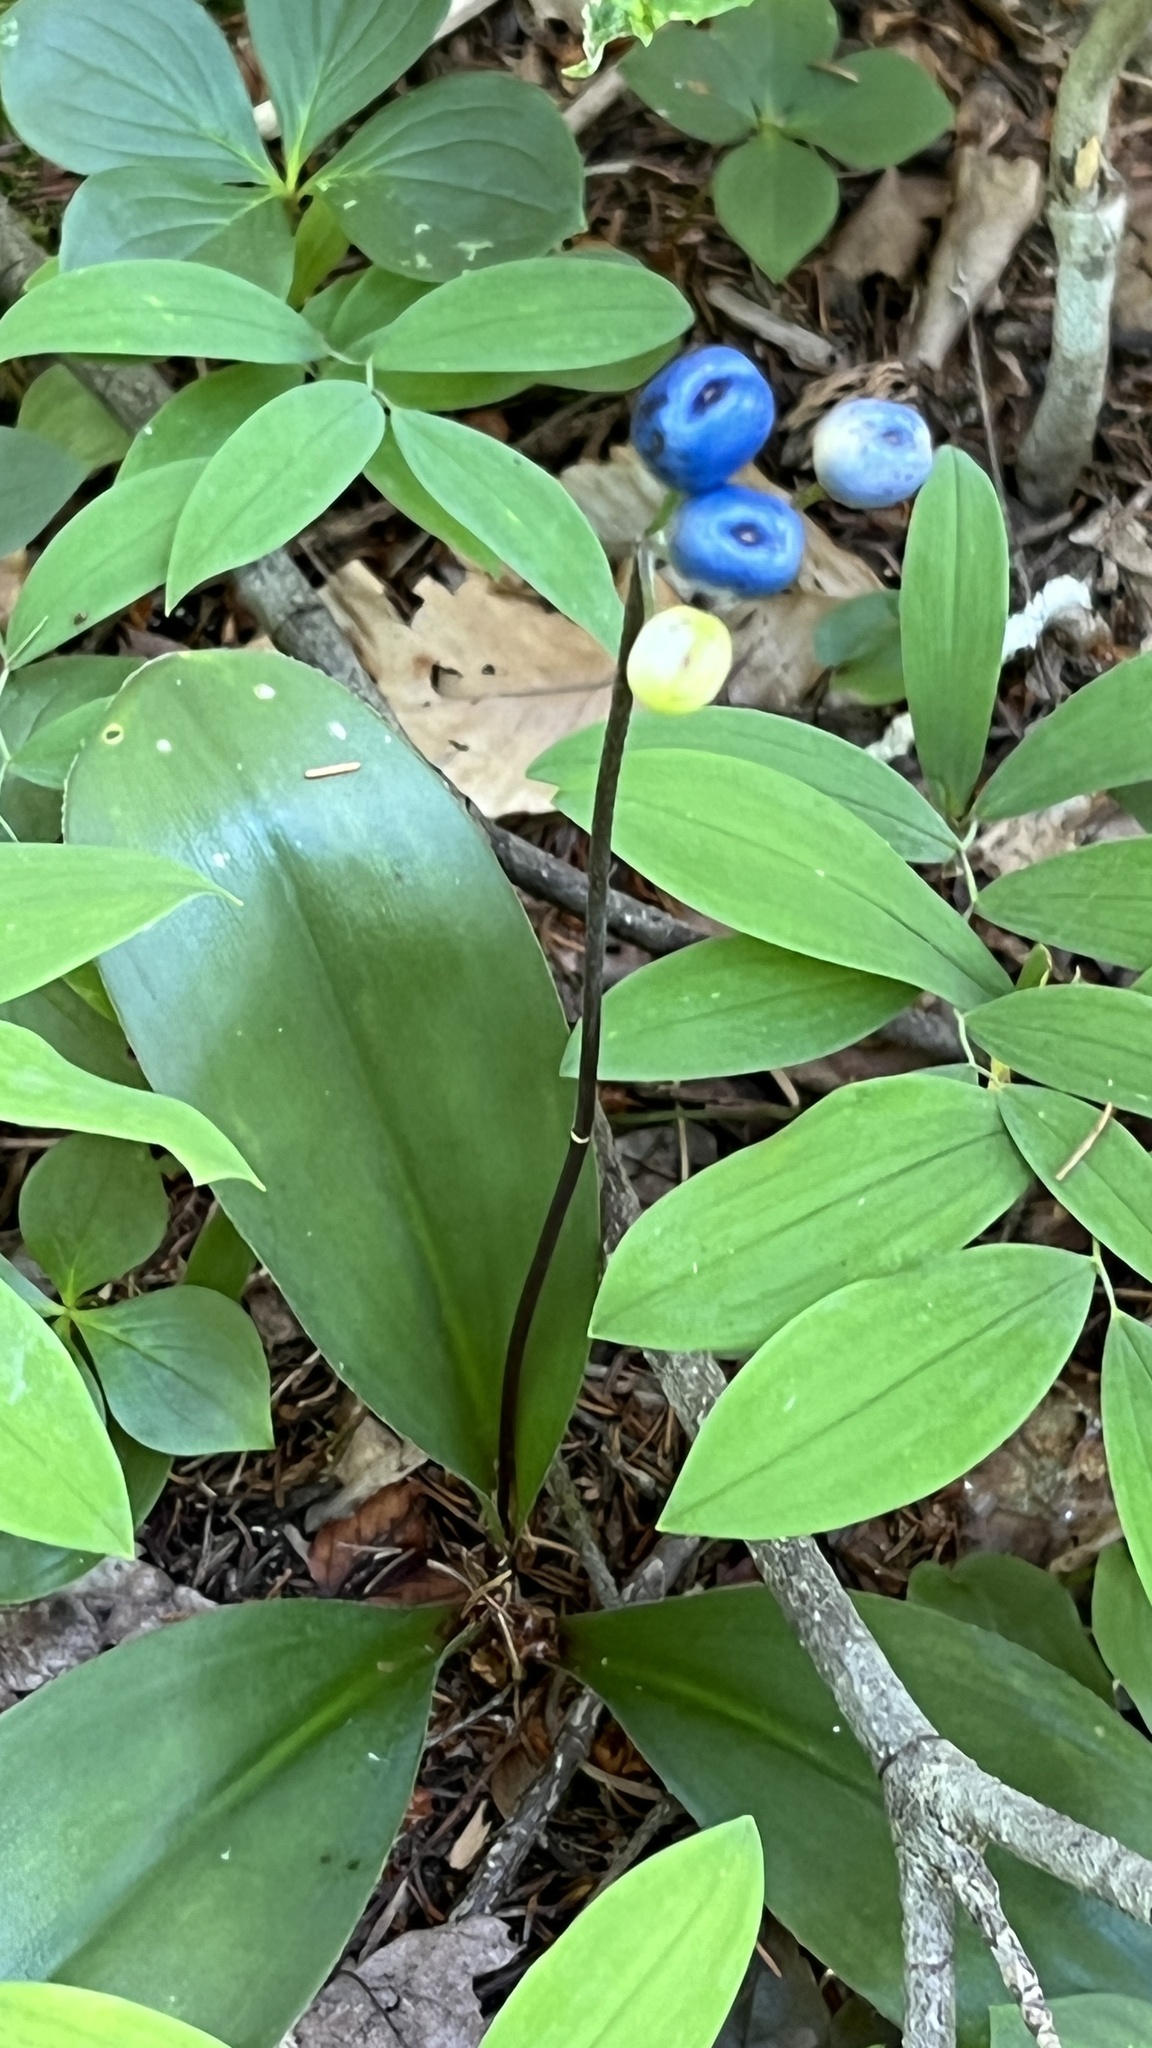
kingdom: Plantae
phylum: Tracheophyta
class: Liliopsida
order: Liliales
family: Liliaceae
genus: Clintonia
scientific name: Clintonia borealis
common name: Yellow clintonia
